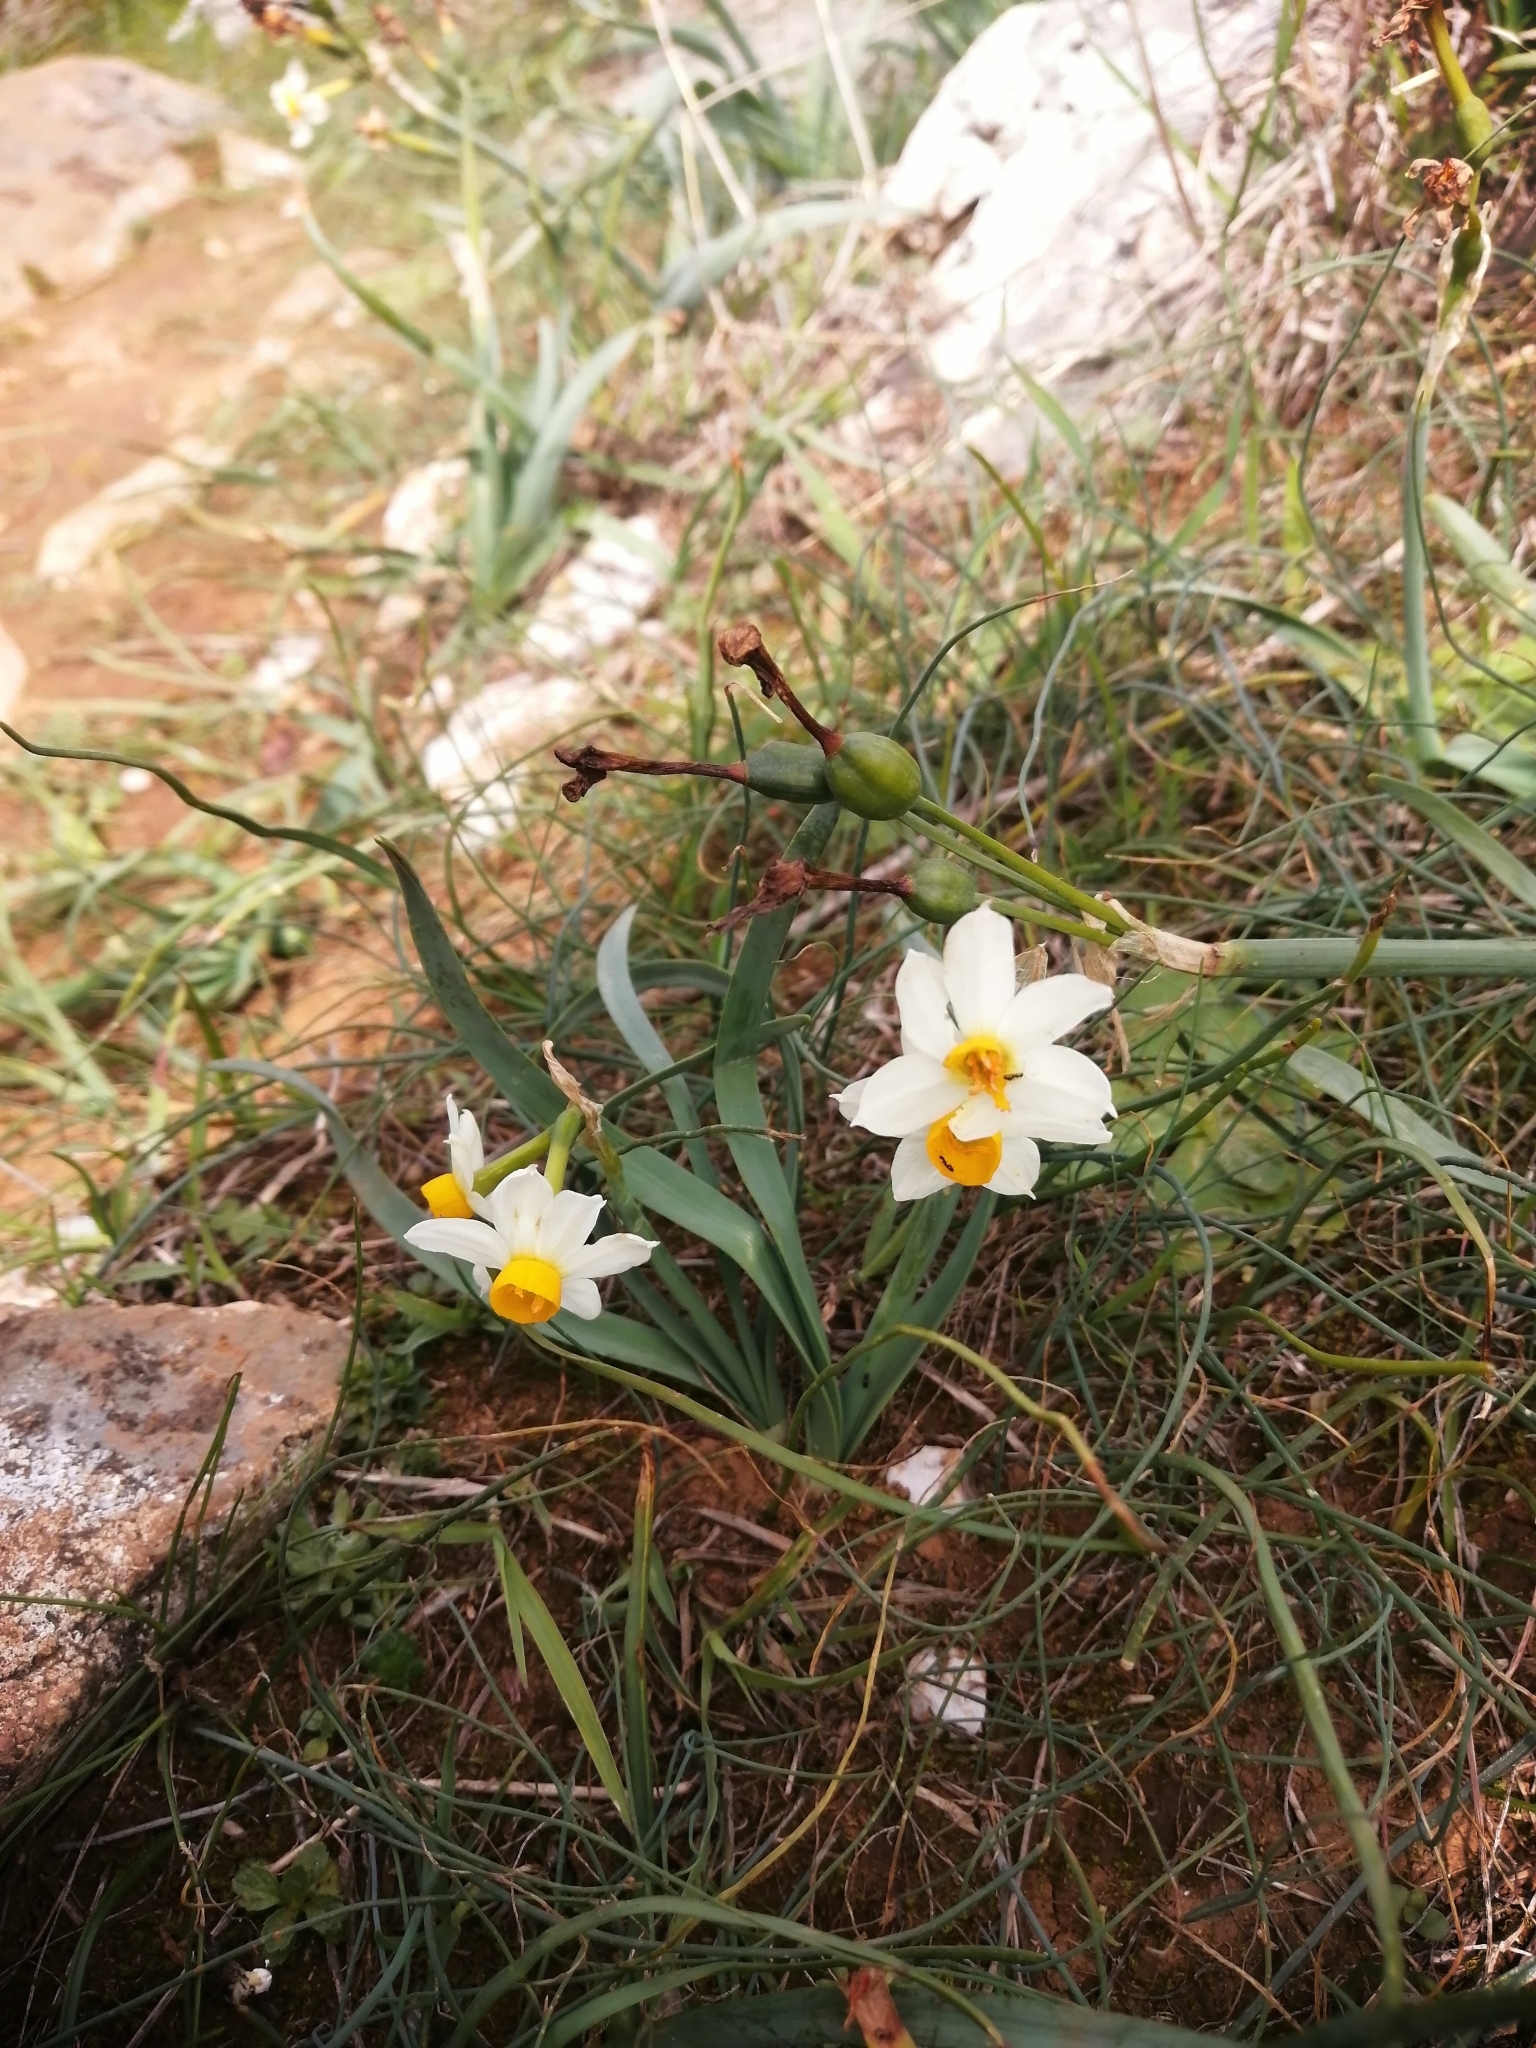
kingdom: Plantae
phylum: Tracheophyta
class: Liliopsida
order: Asparagales
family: Amaryllidaceae
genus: Narcissus
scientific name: Narcissus tazetta
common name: Bunch-flowered daffodil
